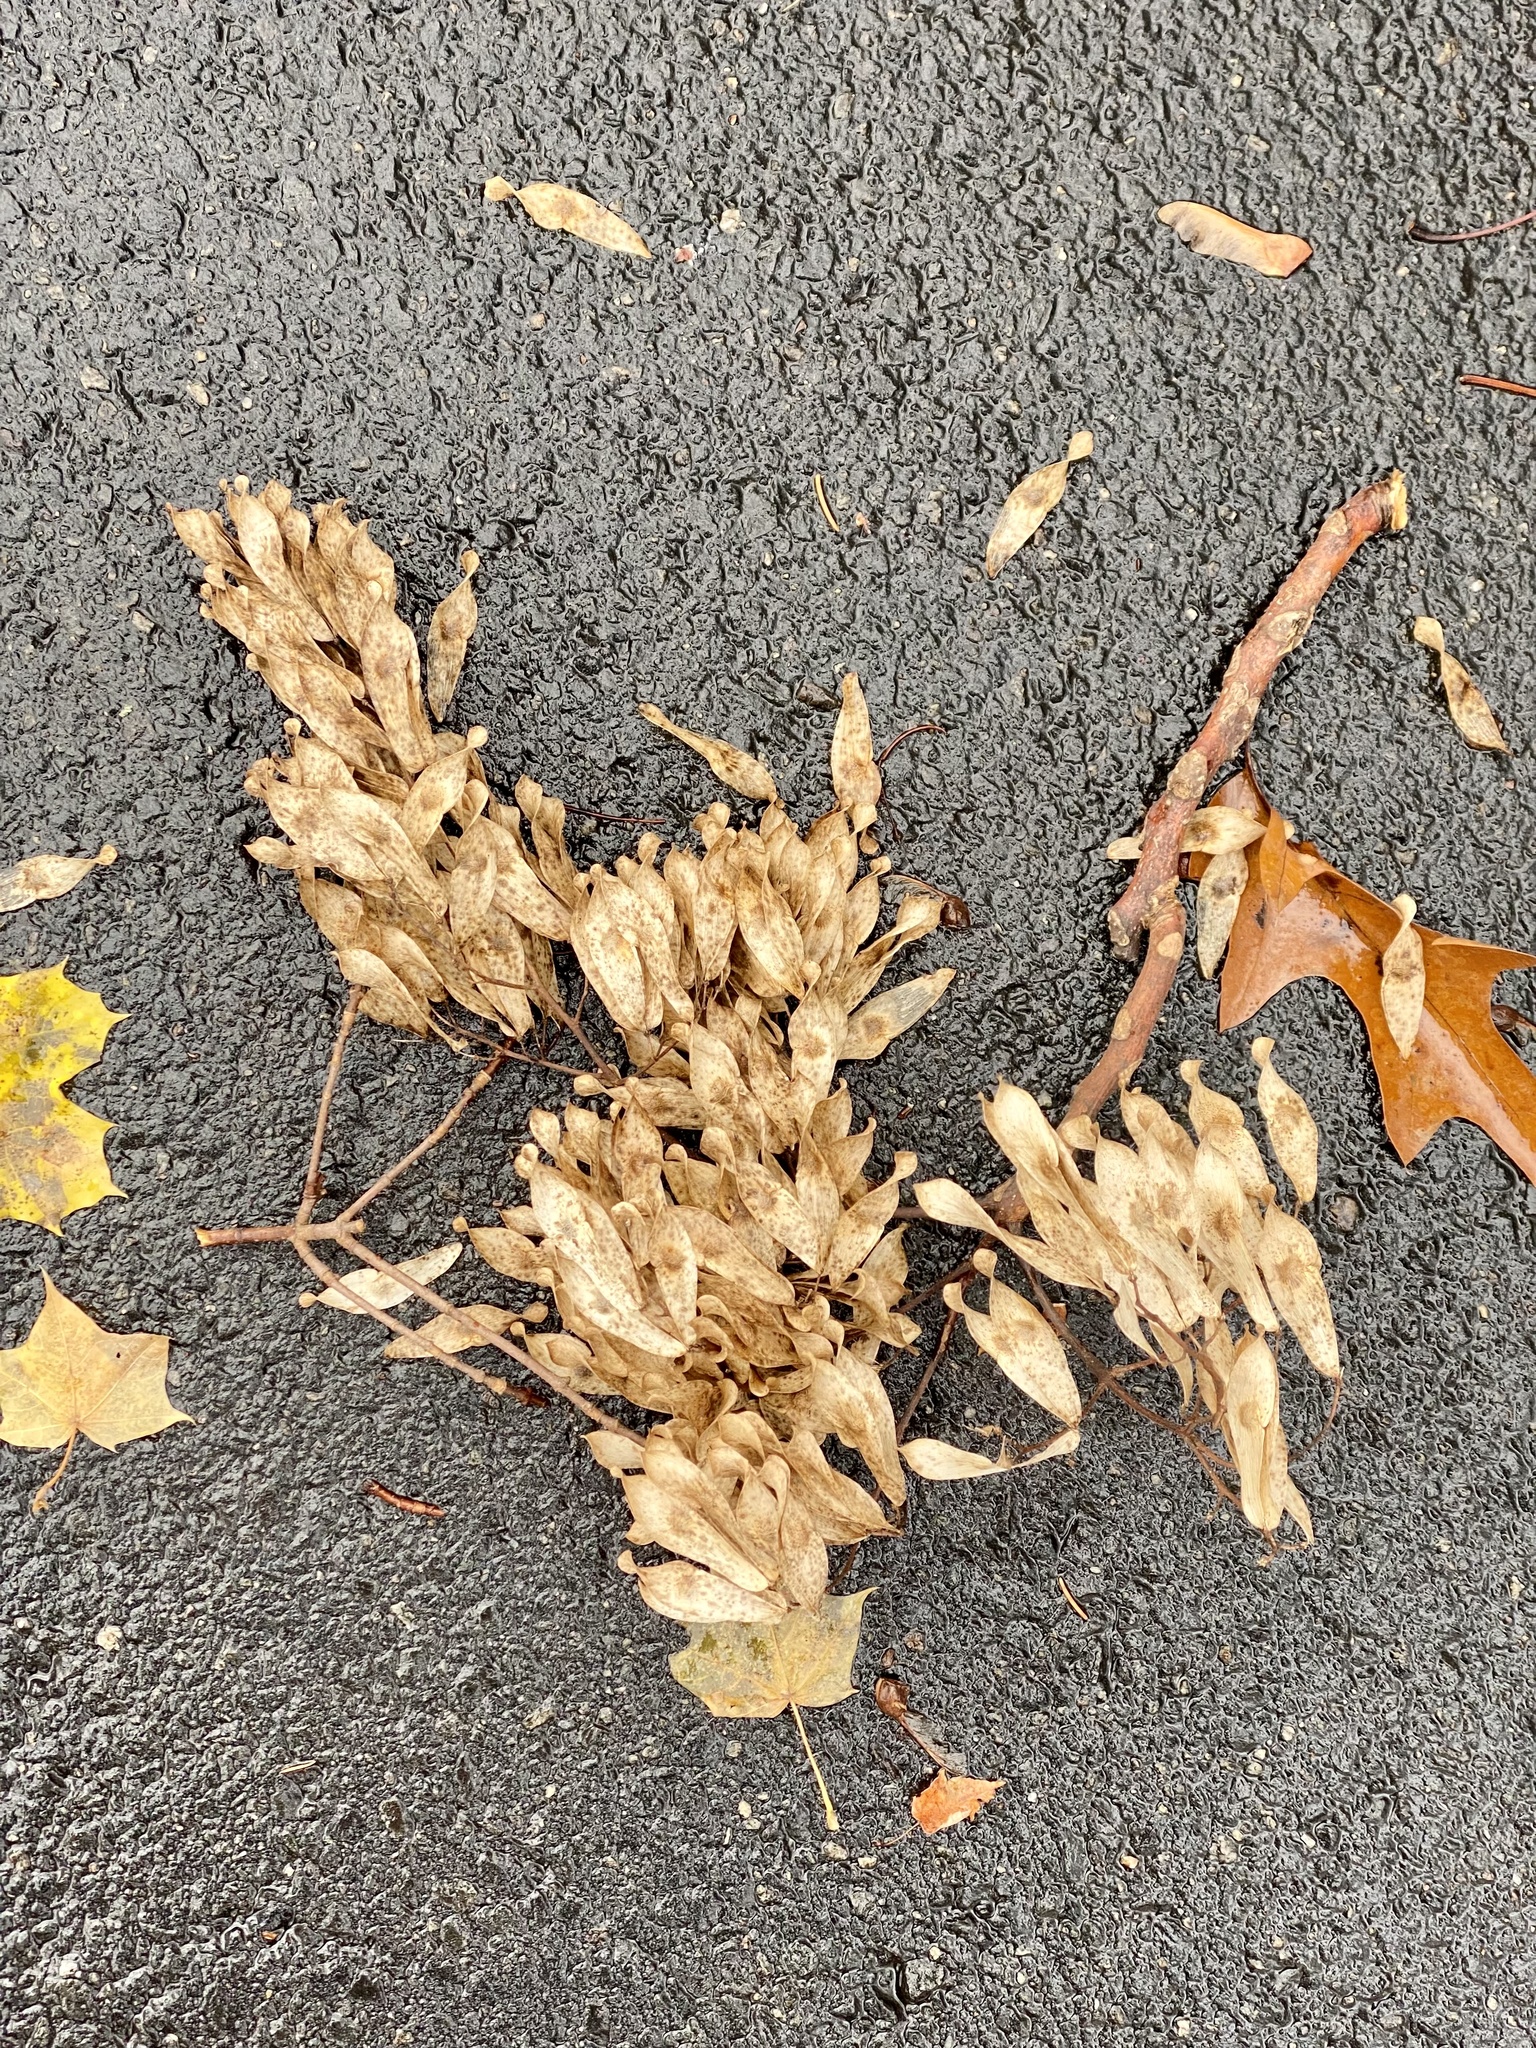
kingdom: Plantae
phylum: Tracheophyta
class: Magnoliopsida
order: Sapindales
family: Simaroubaceae
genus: Ailanthus
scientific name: Ailanthus altissima
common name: Tree-of-heaven
